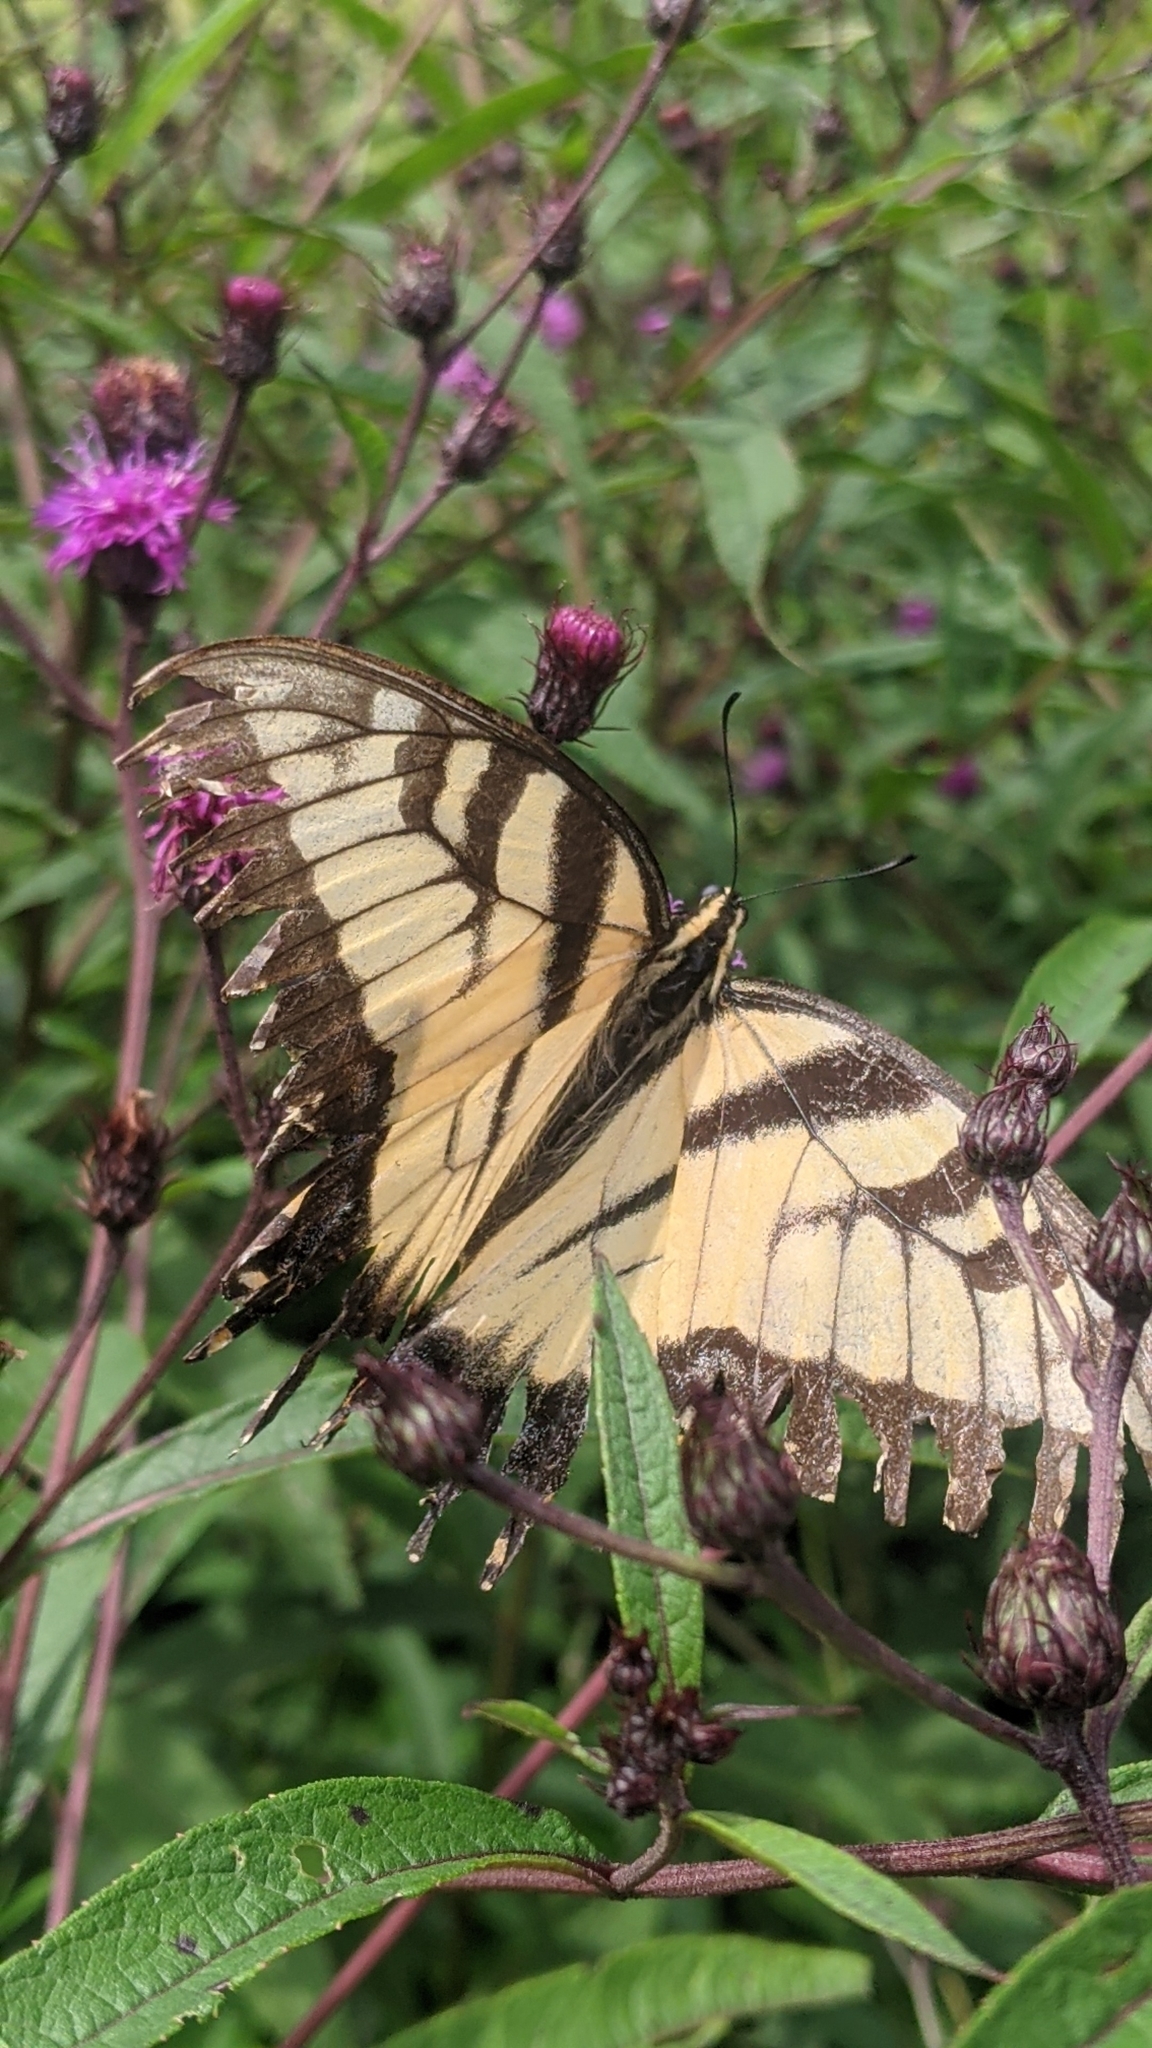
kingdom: Animalia
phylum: Arthropoda
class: Insecta
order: Lepidoptera
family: Papilionidae
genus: Papilio
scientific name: Papilio glaucus
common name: Tiger swallowtail
